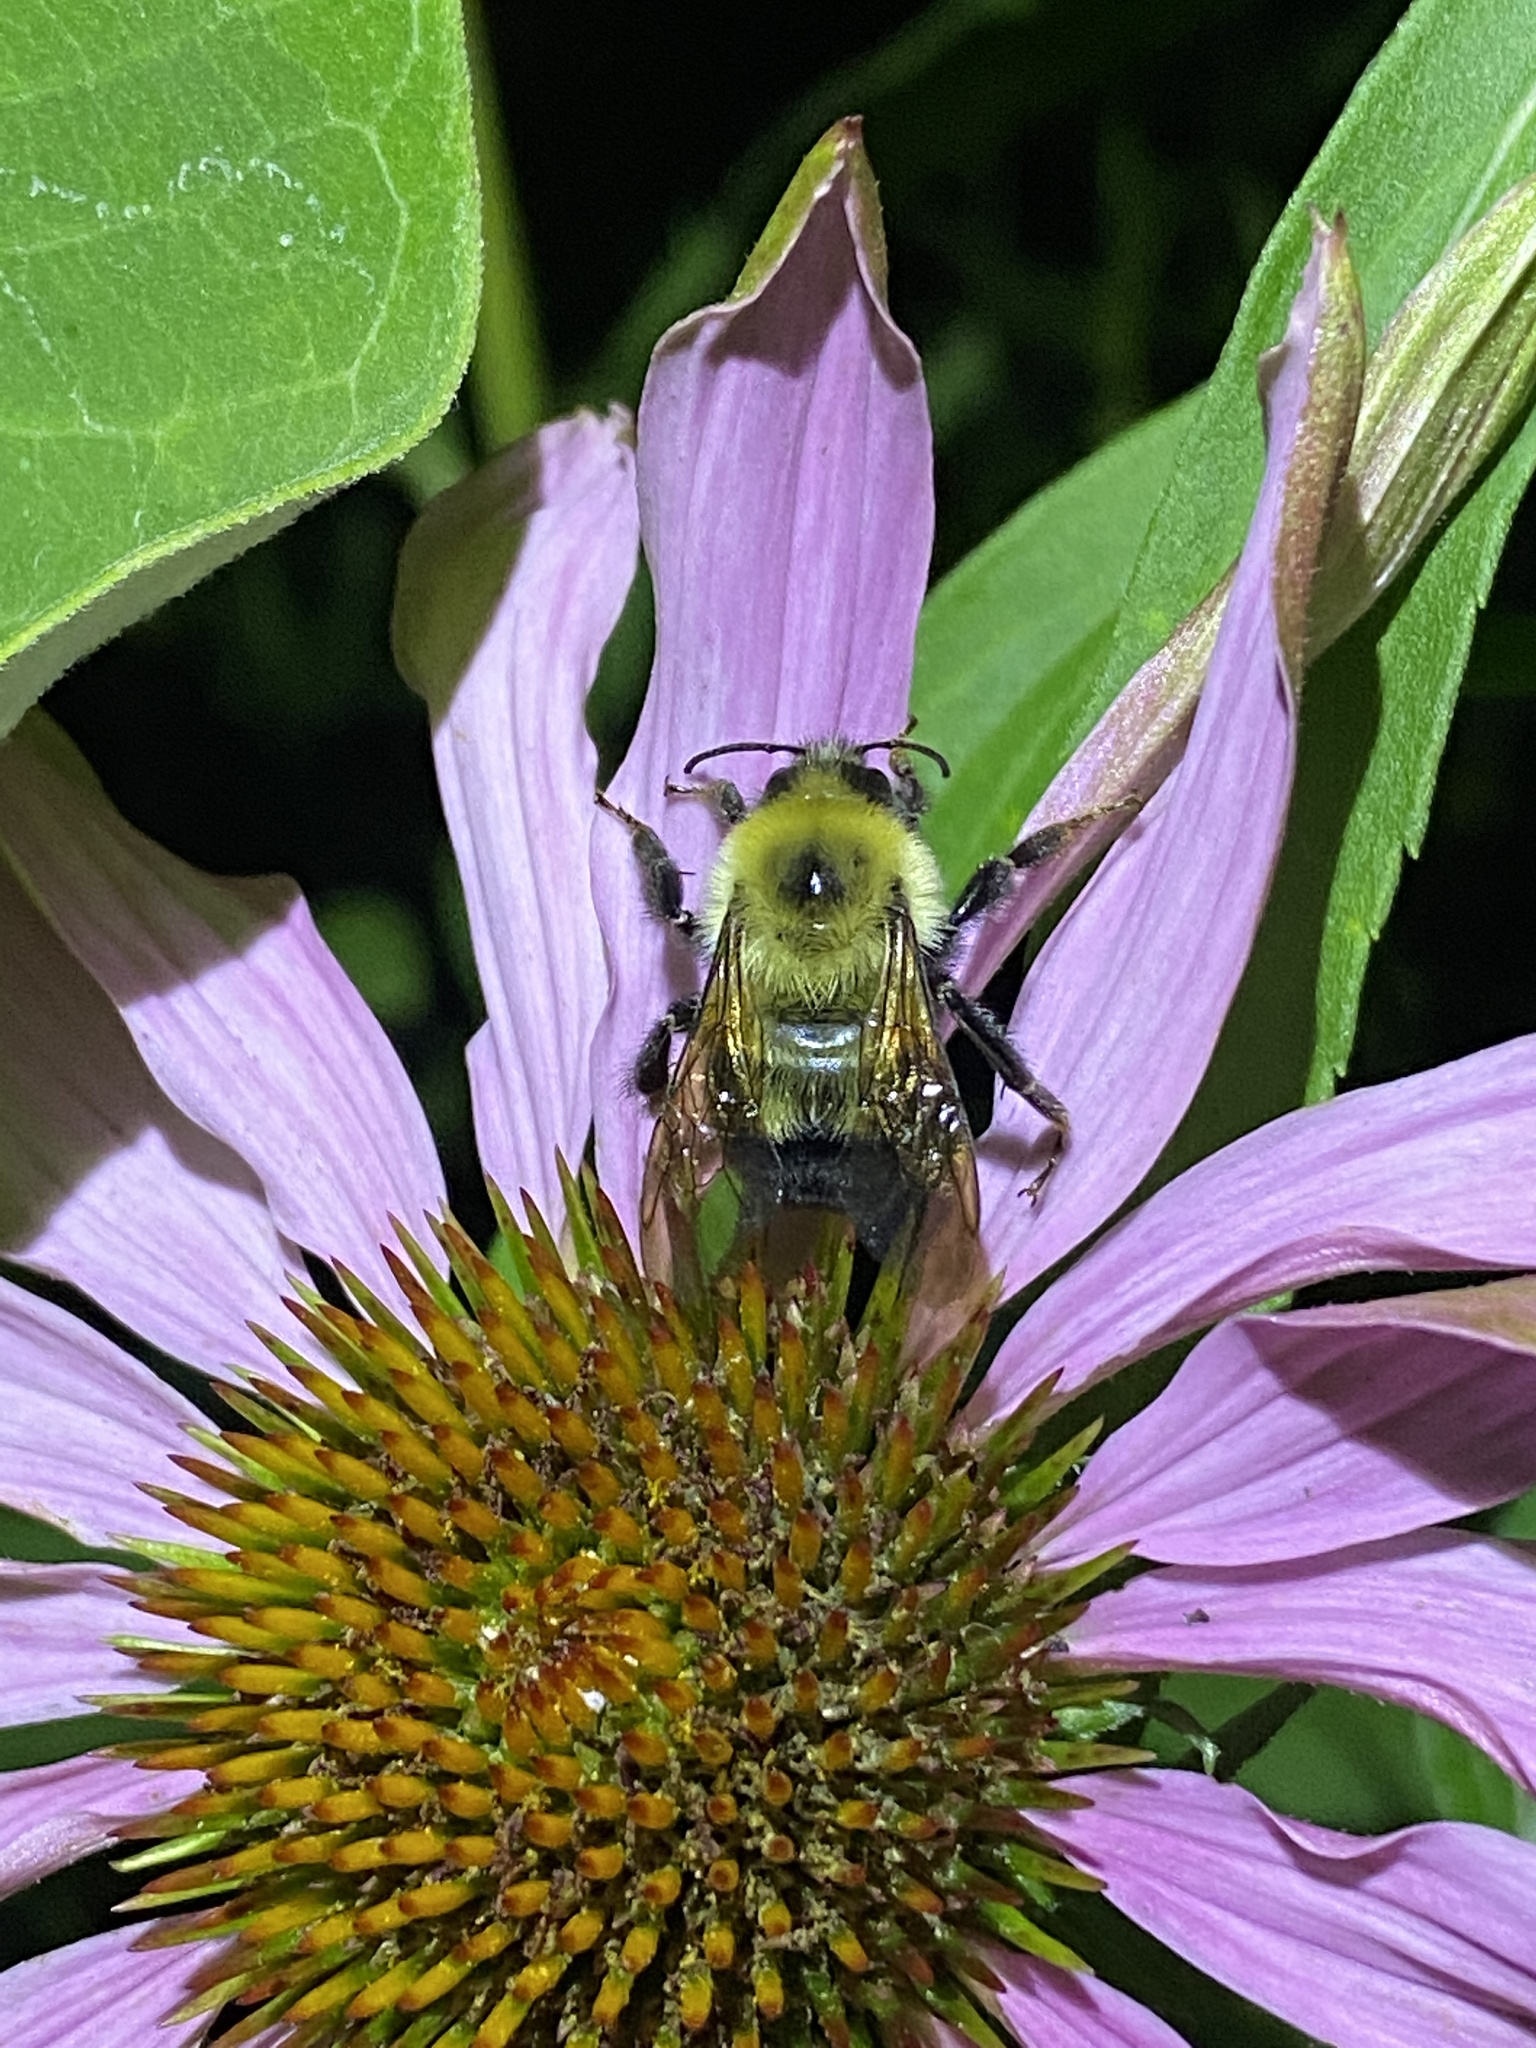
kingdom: Animalia
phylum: Arthropoda
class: Insecta
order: Hymenoptera
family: Apidae
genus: Bombus
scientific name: Bombus bimaculatus
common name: Two-spotted bumble bee
